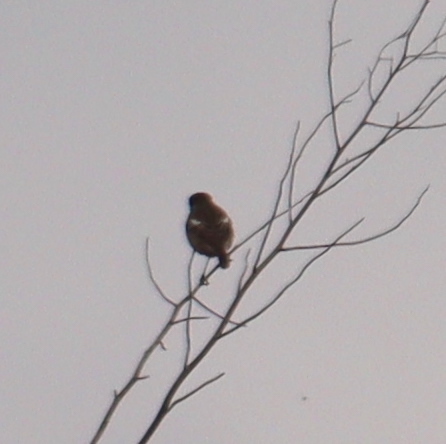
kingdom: Animalia
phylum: Chordata
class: Aves
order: Passeriformes
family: Muscicapidae
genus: Saxicola
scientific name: Saxicola rubicola
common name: European stonechat
